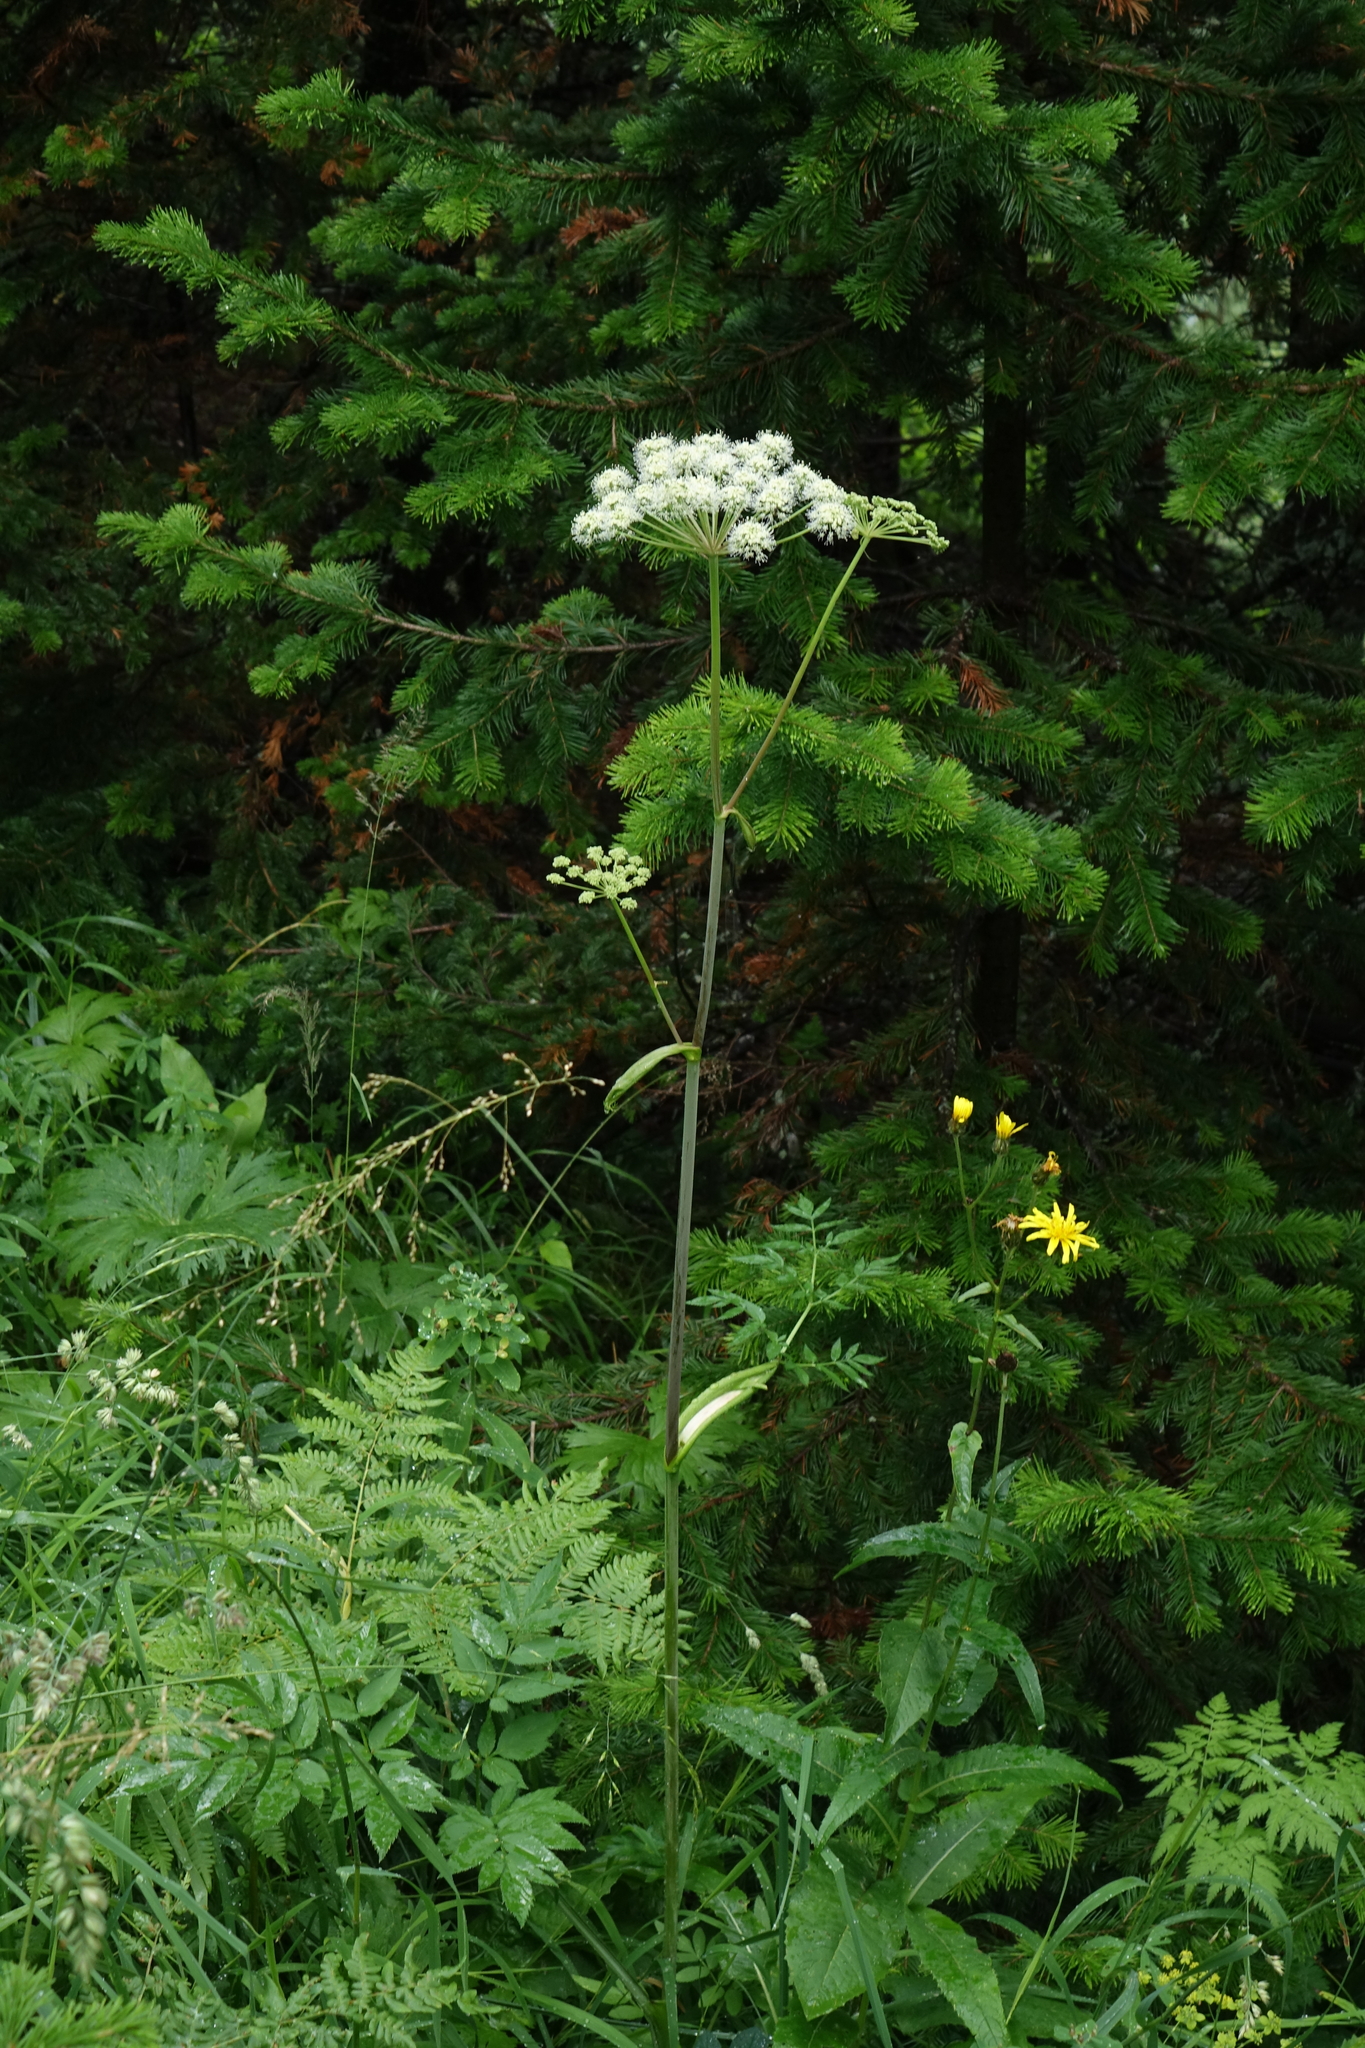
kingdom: Plantae
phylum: Tracheophyta
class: Magnoliopsida
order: Apiales
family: Apiaceae
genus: Angelica
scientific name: Angelica sylvestris
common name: Wild angelica
